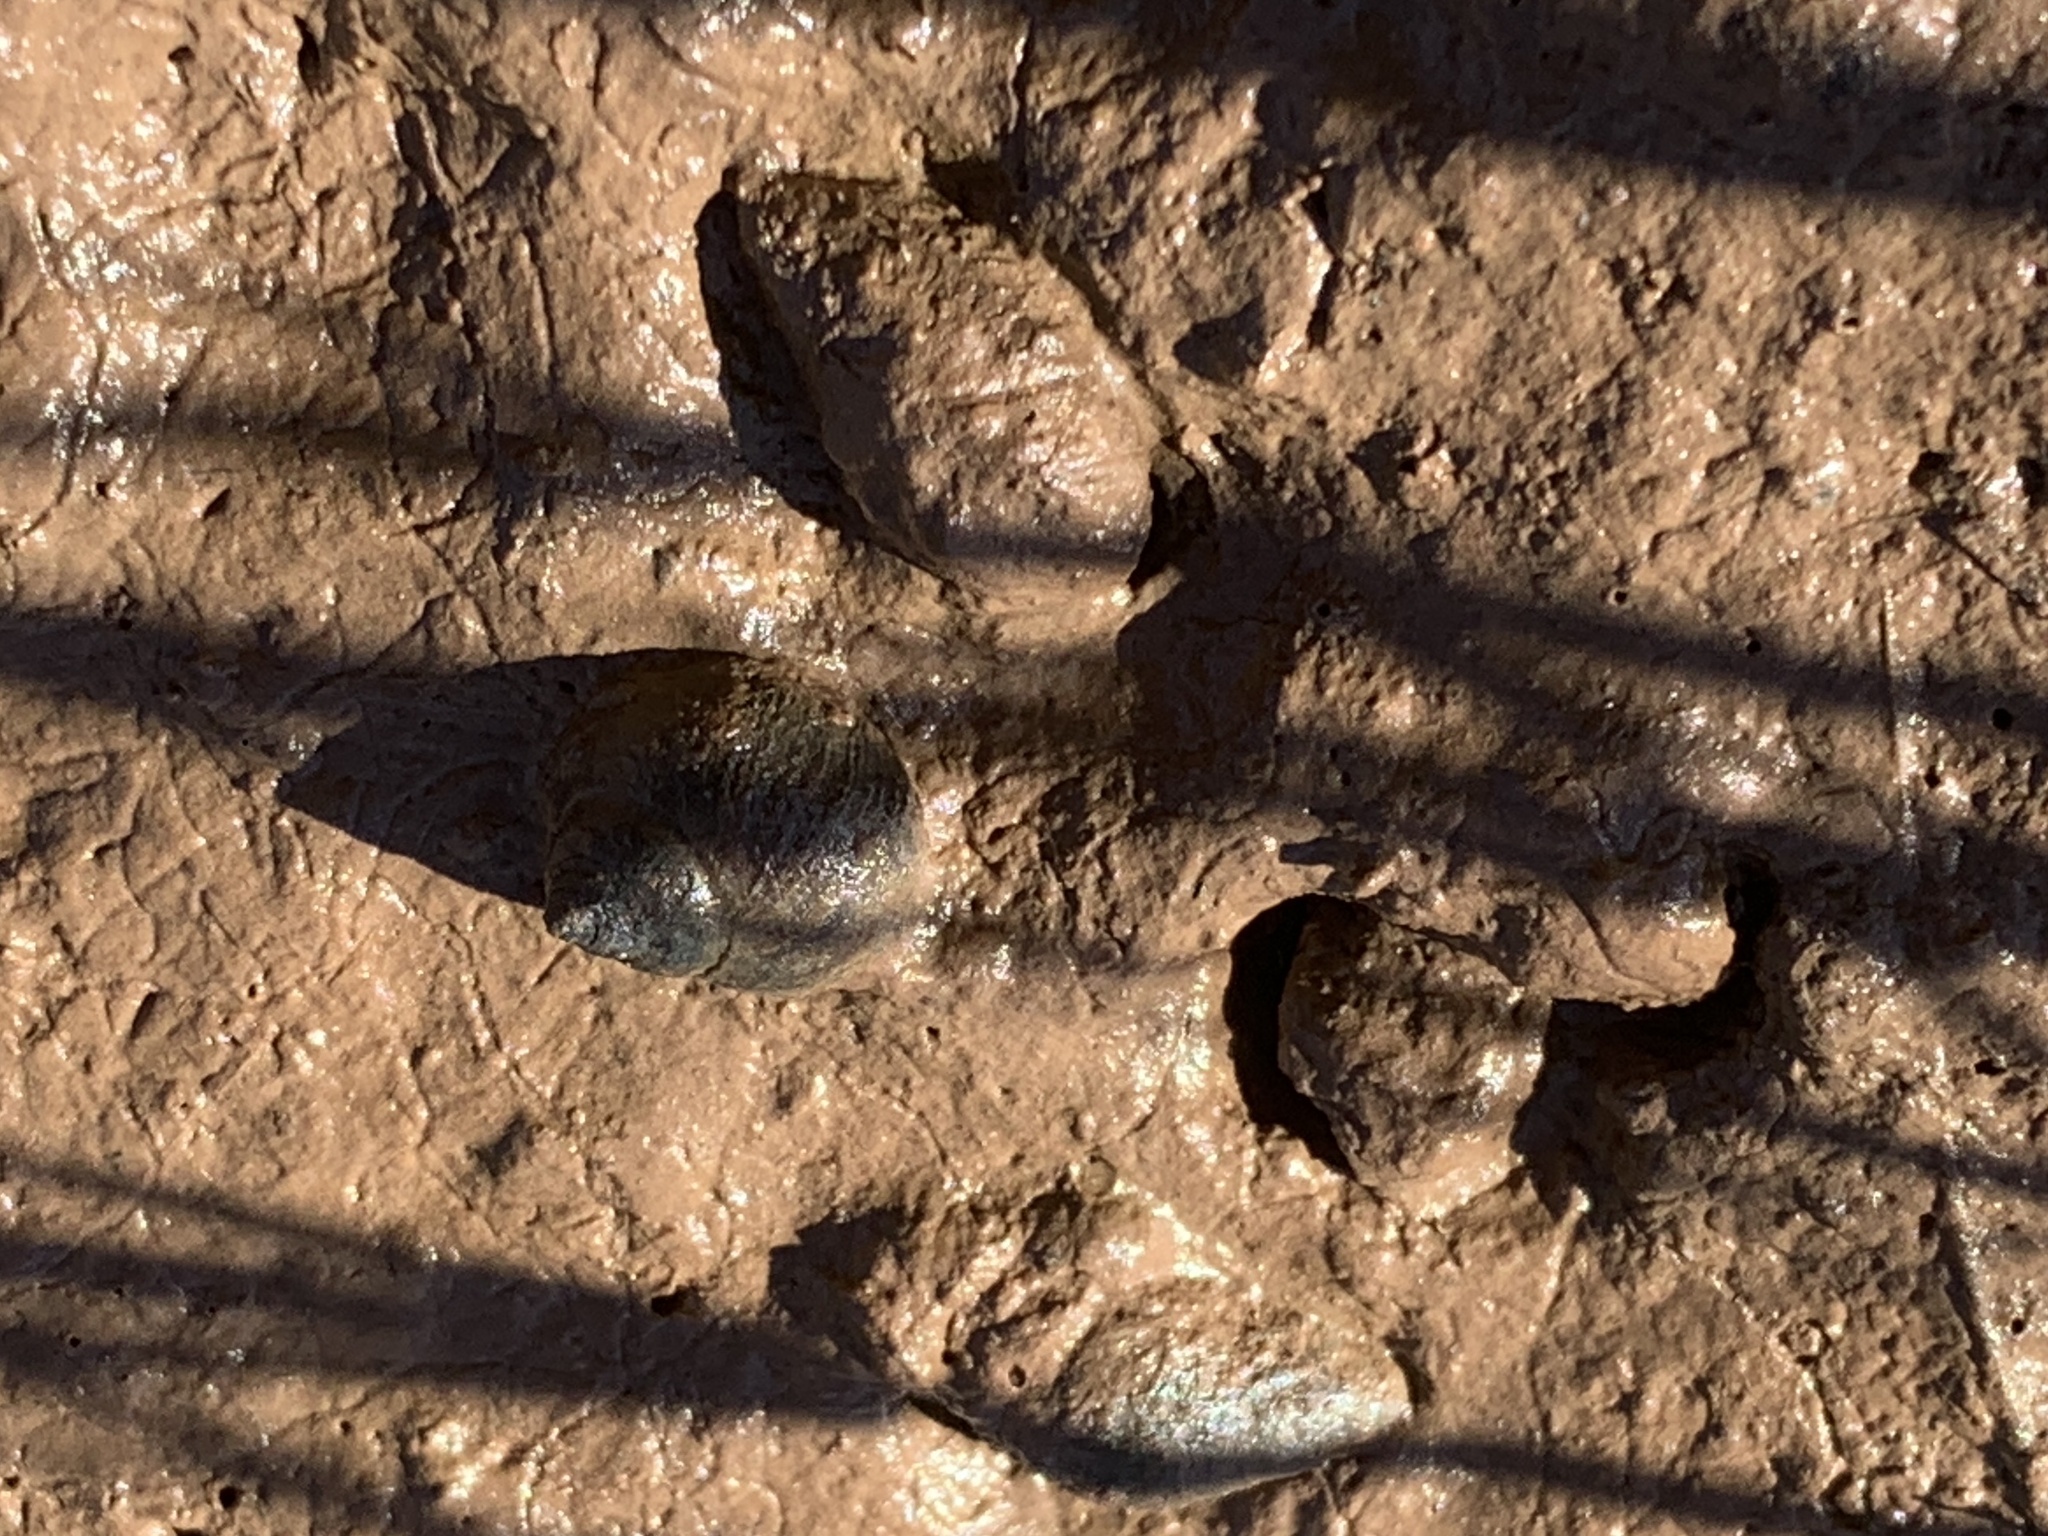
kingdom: Animalia
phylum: Mollusca
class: Gastropoda
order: Littorinimorpha
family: Littorinidae
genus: Littorina
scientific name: Littorina littorea
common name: Common periwinkle
